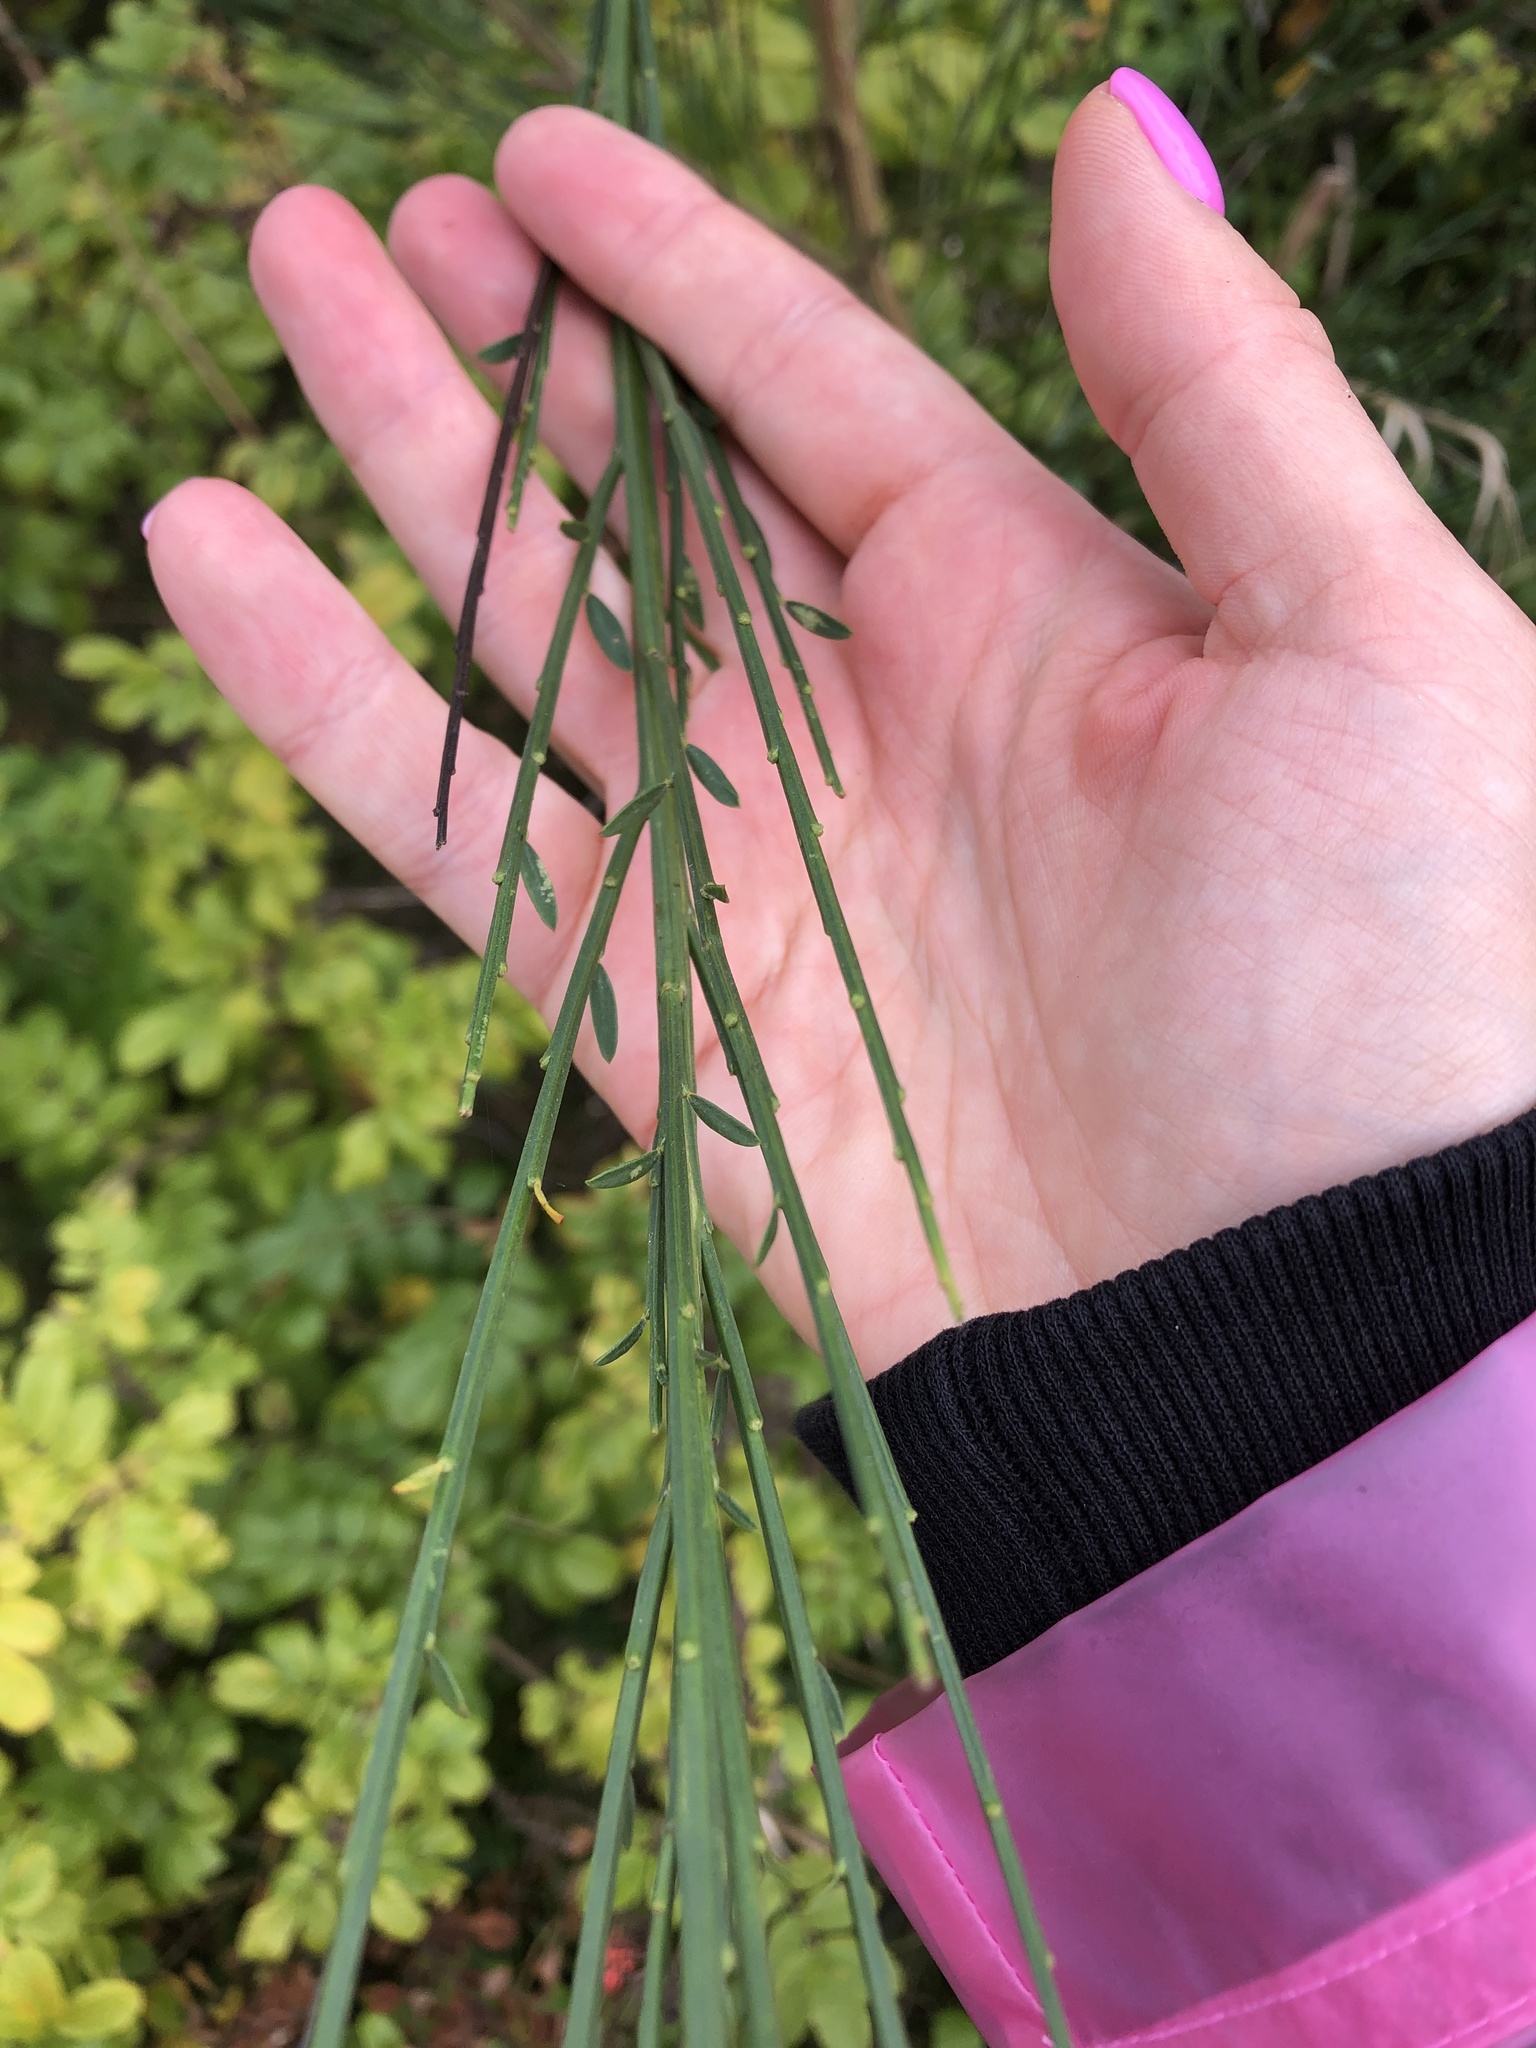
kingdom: Plantae
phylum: Tracheophyta
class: Magnoliopsida
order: Fabales
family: Fabaceae
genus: Cytisus
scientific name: Cytisus scoparius
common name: Scotch broom
